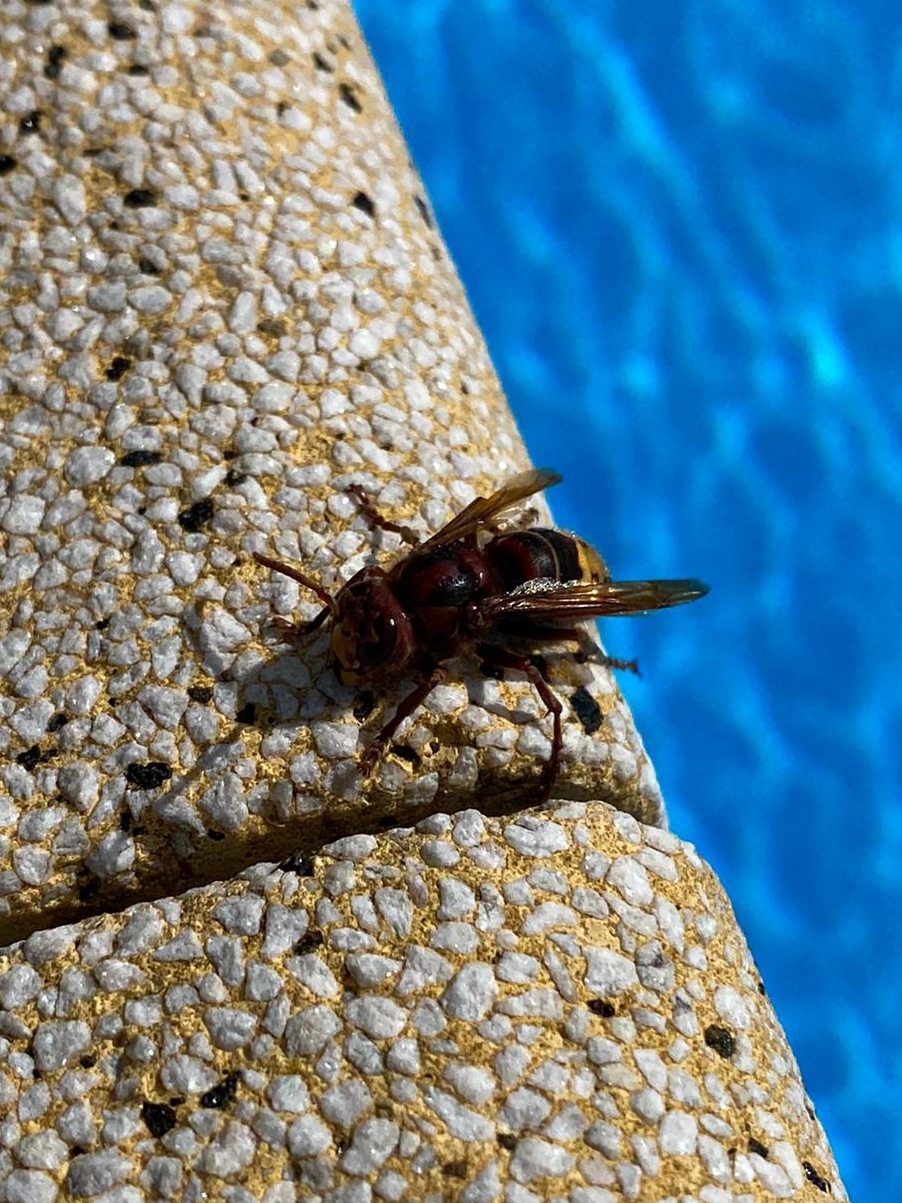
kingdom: Animalia
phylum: Arthropoda
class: Insecta
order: Hymenoptera
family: Vespidae
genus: Vespa
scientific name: Vespa crabro
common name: Hornet
